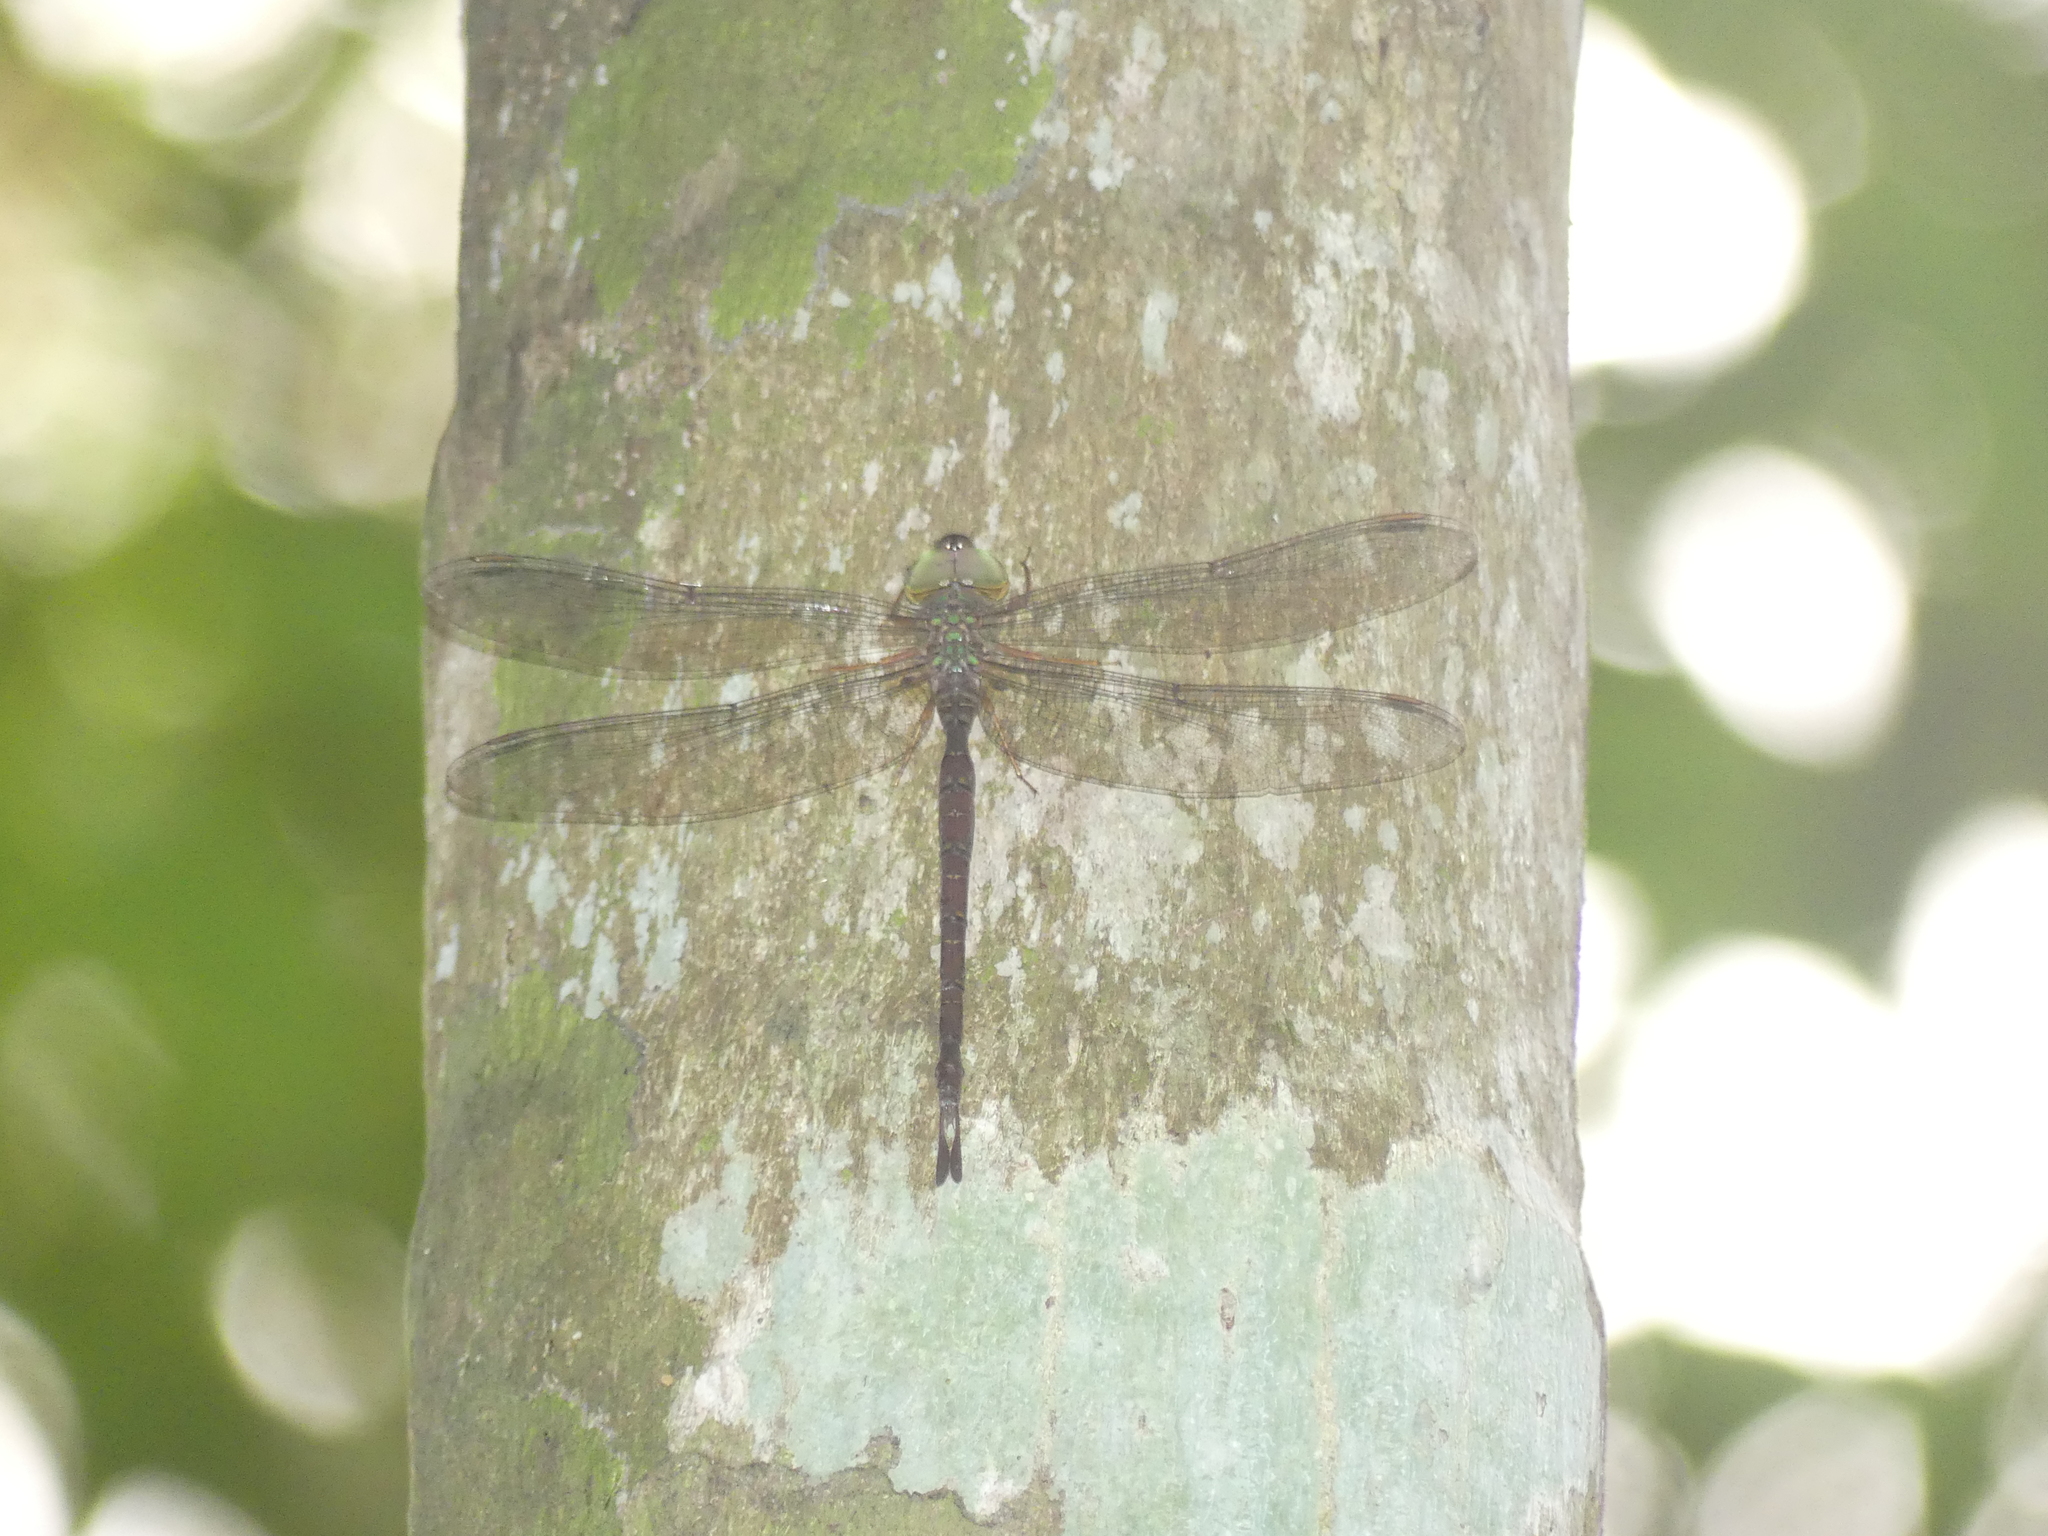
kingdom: Animalia
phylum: Arthropoda
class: Insecta
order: Odonata
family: Aeshnidae
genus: Gynacantha
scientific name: Gynacantha rosenbergi
